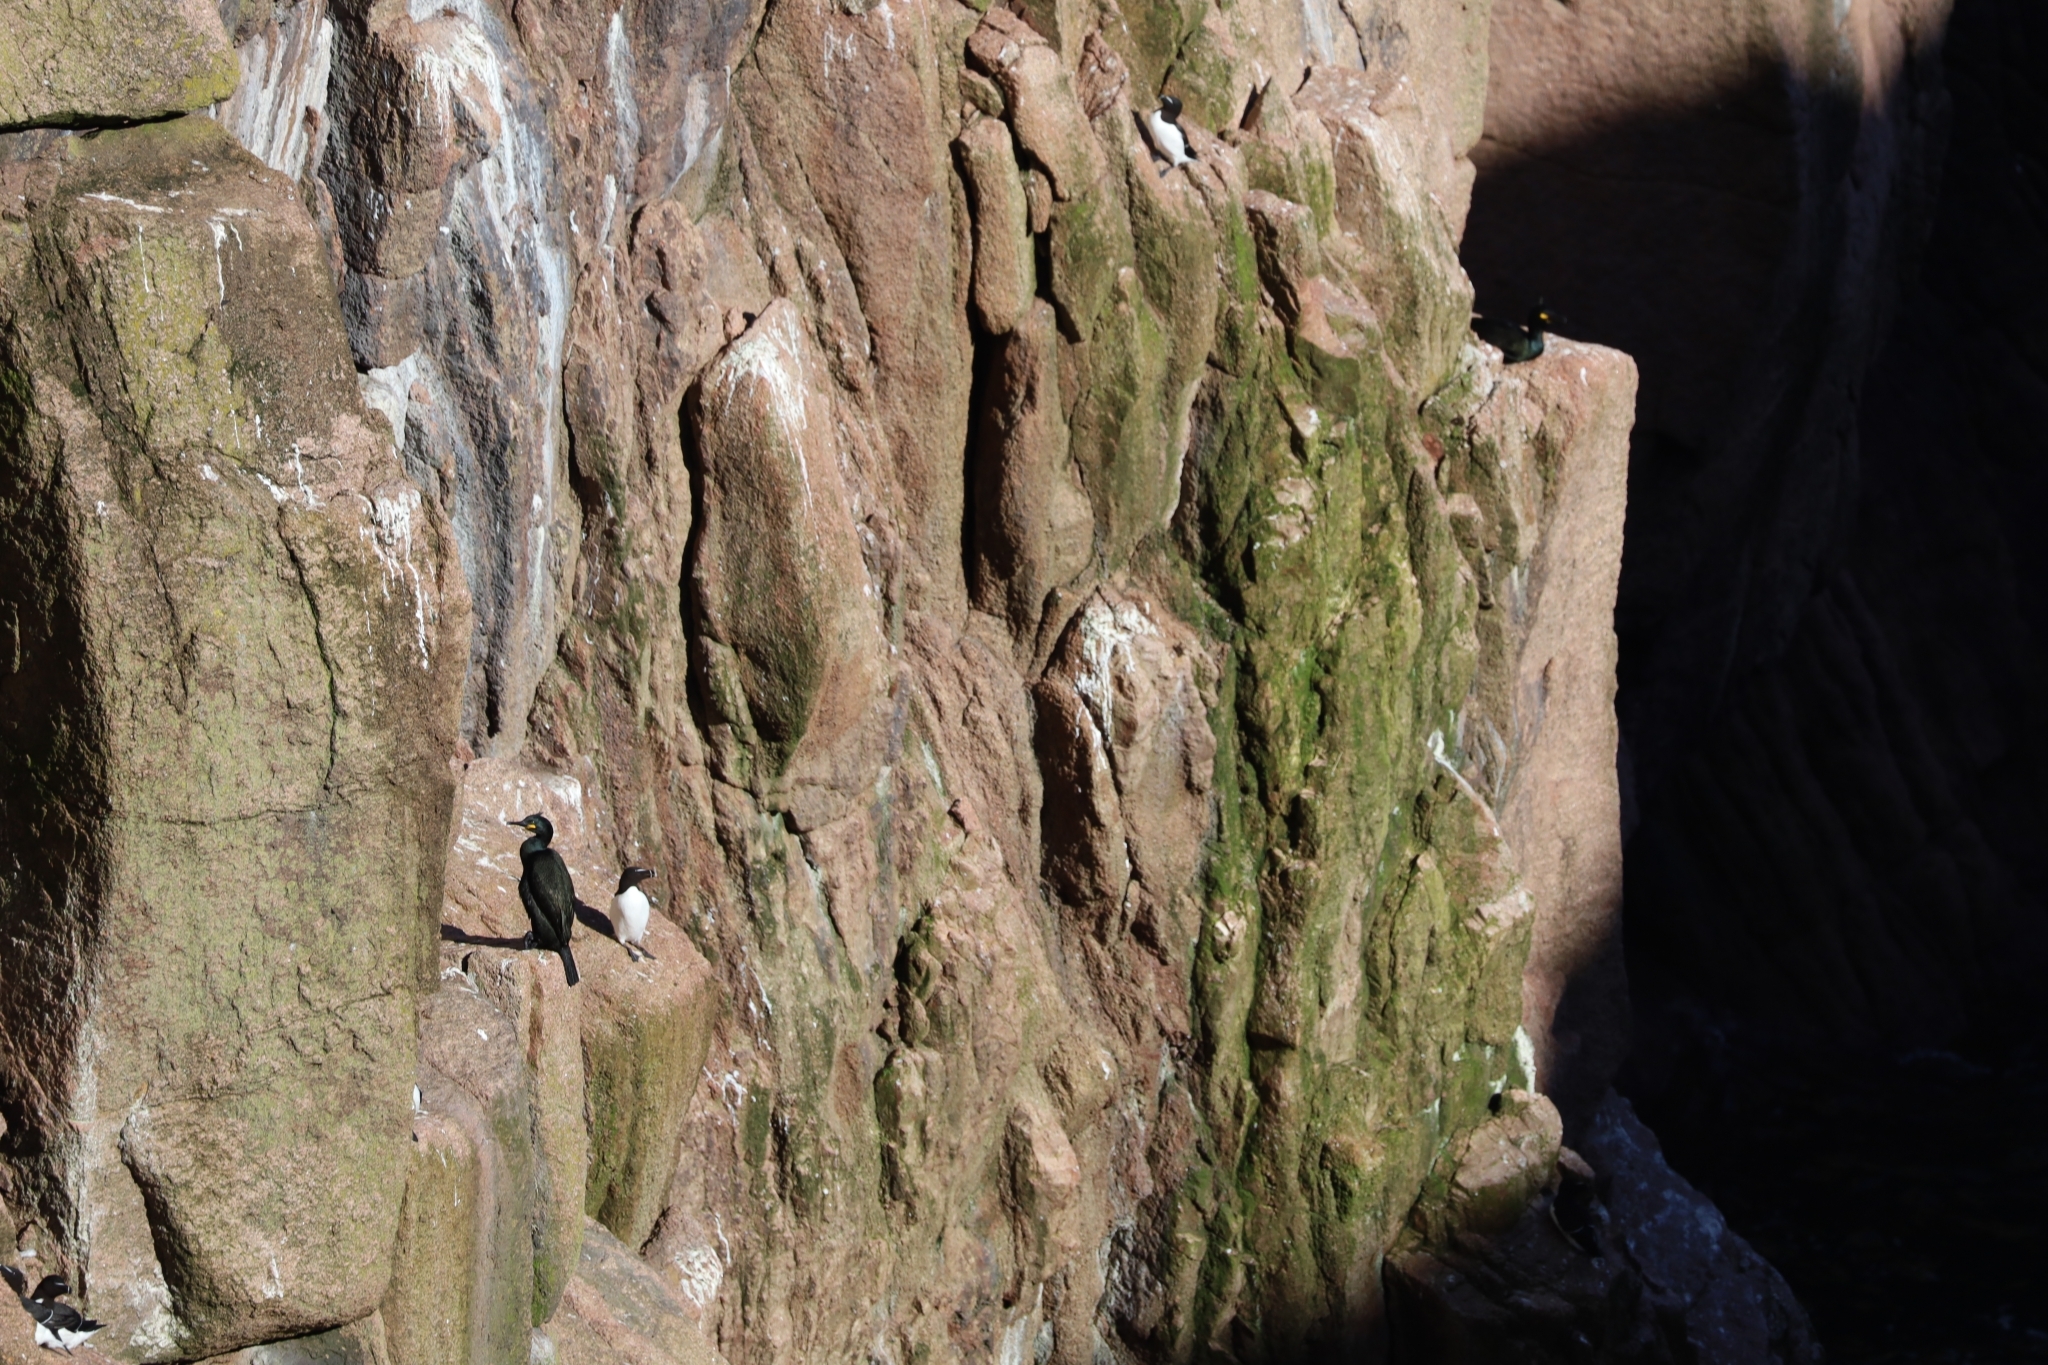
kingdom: Animalia
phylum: Chordata
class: Aves
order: Suliformes
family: Phalacrocoracidae
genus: Phalacrocorax
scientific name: Phalacrocorax aristotelis
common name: European shag
